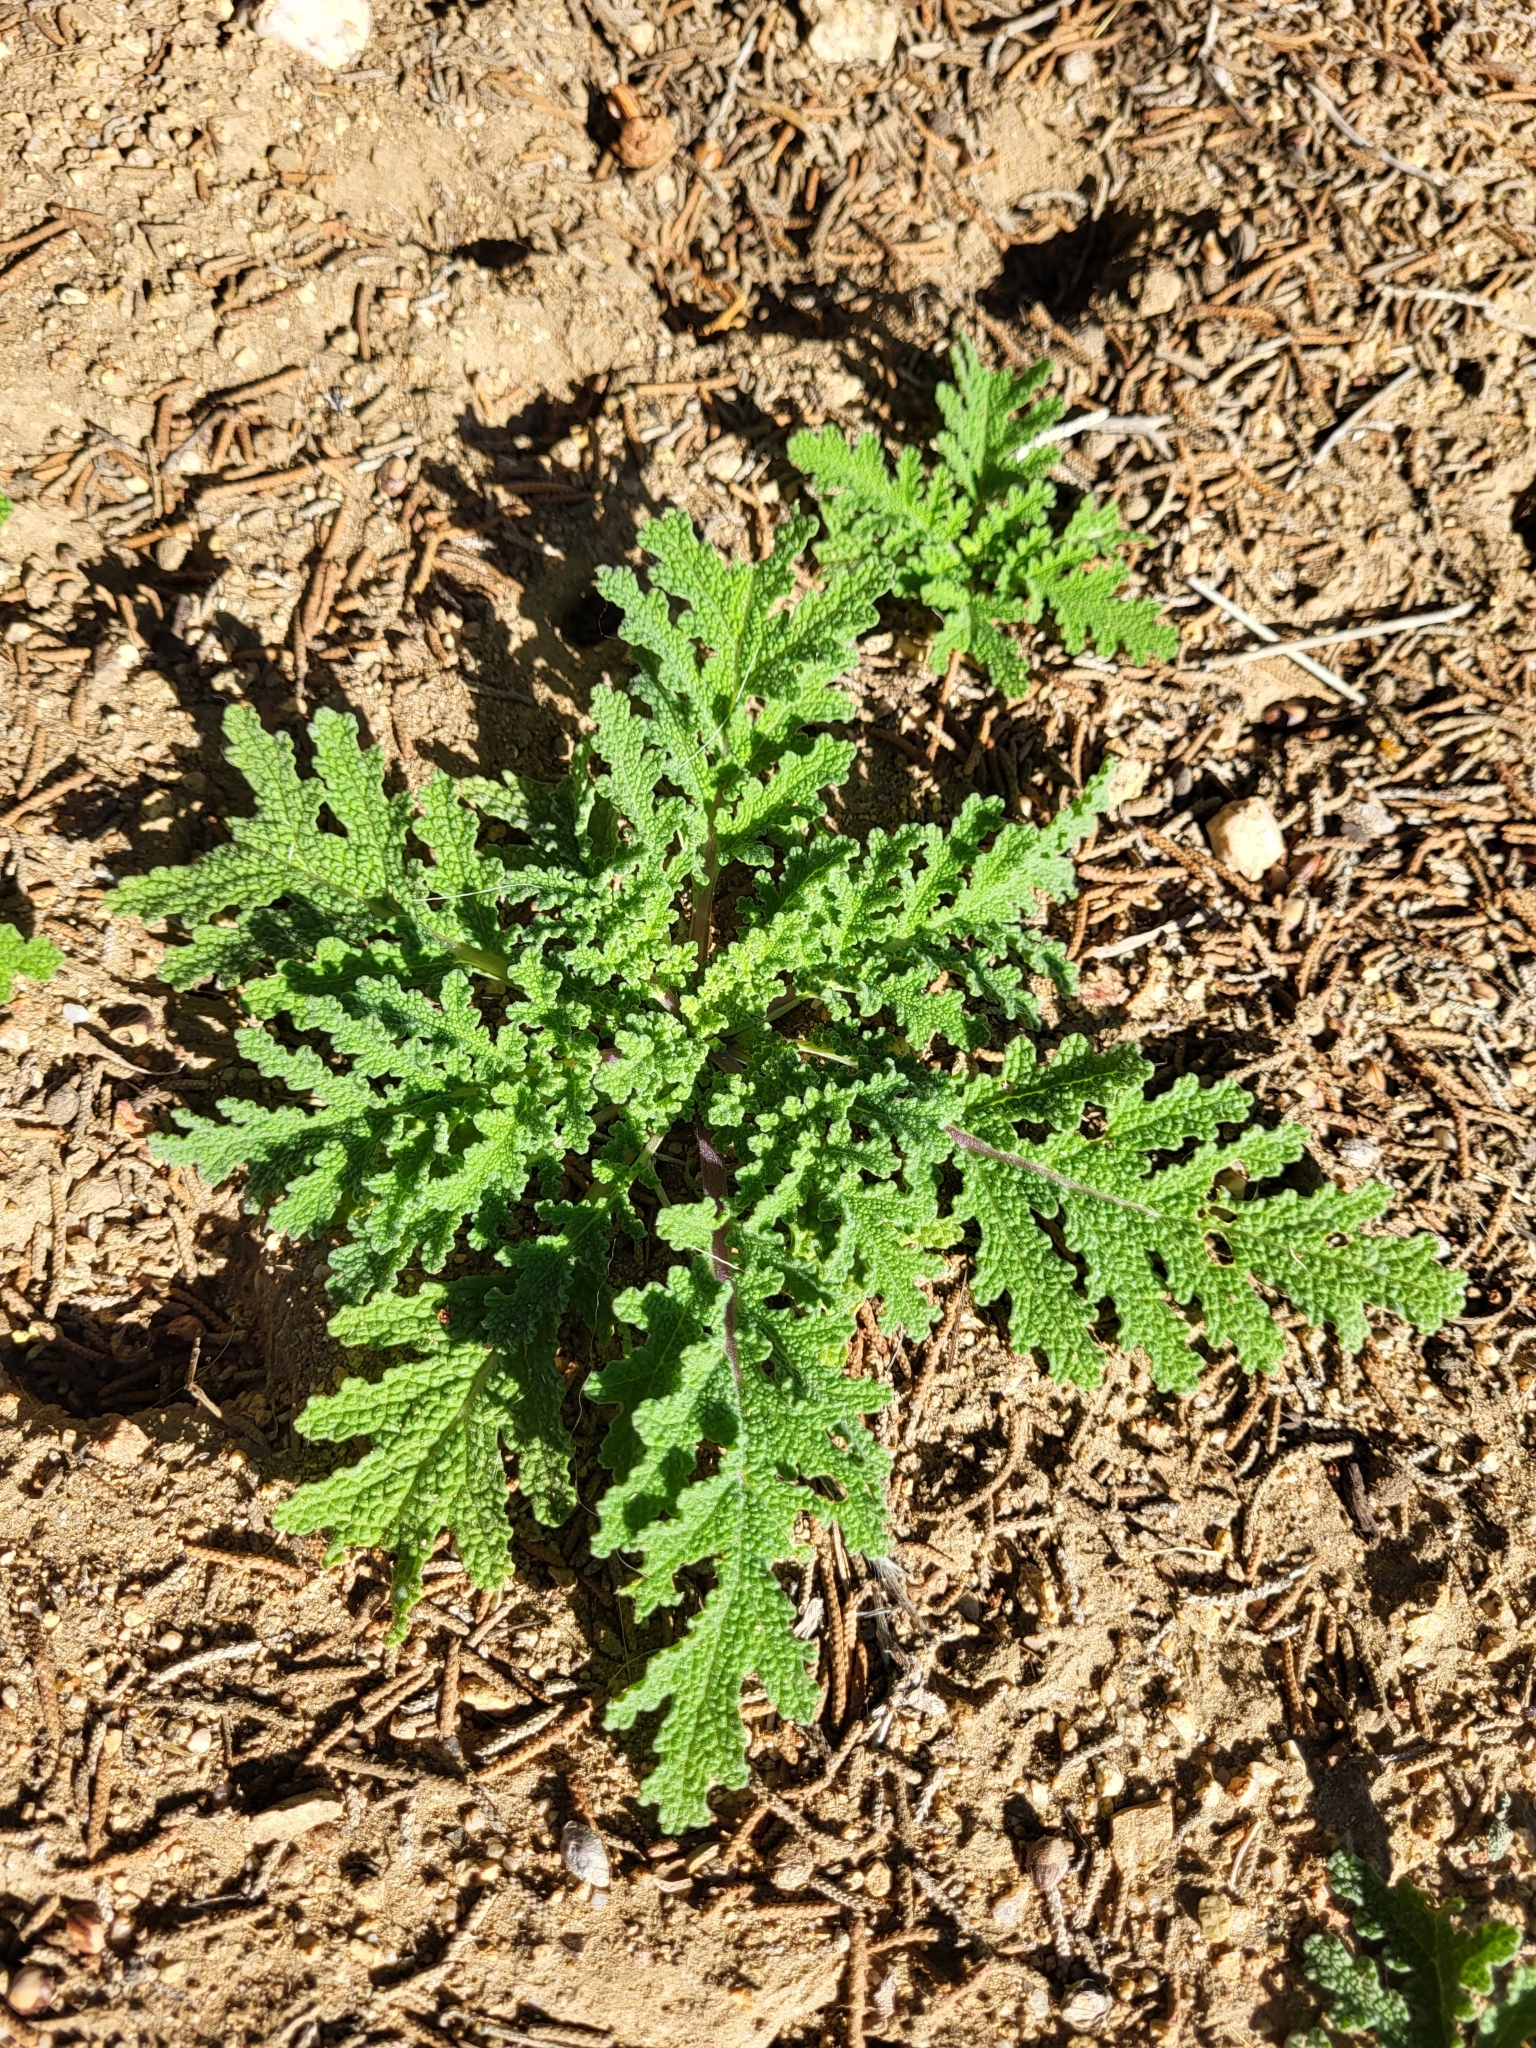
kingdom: Plantae
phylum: Tracheophyta
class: Magnoliopsida
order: Lamiales
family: Lamiaceae
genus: Salvia
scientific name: Salvia columbariae
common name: Chia
